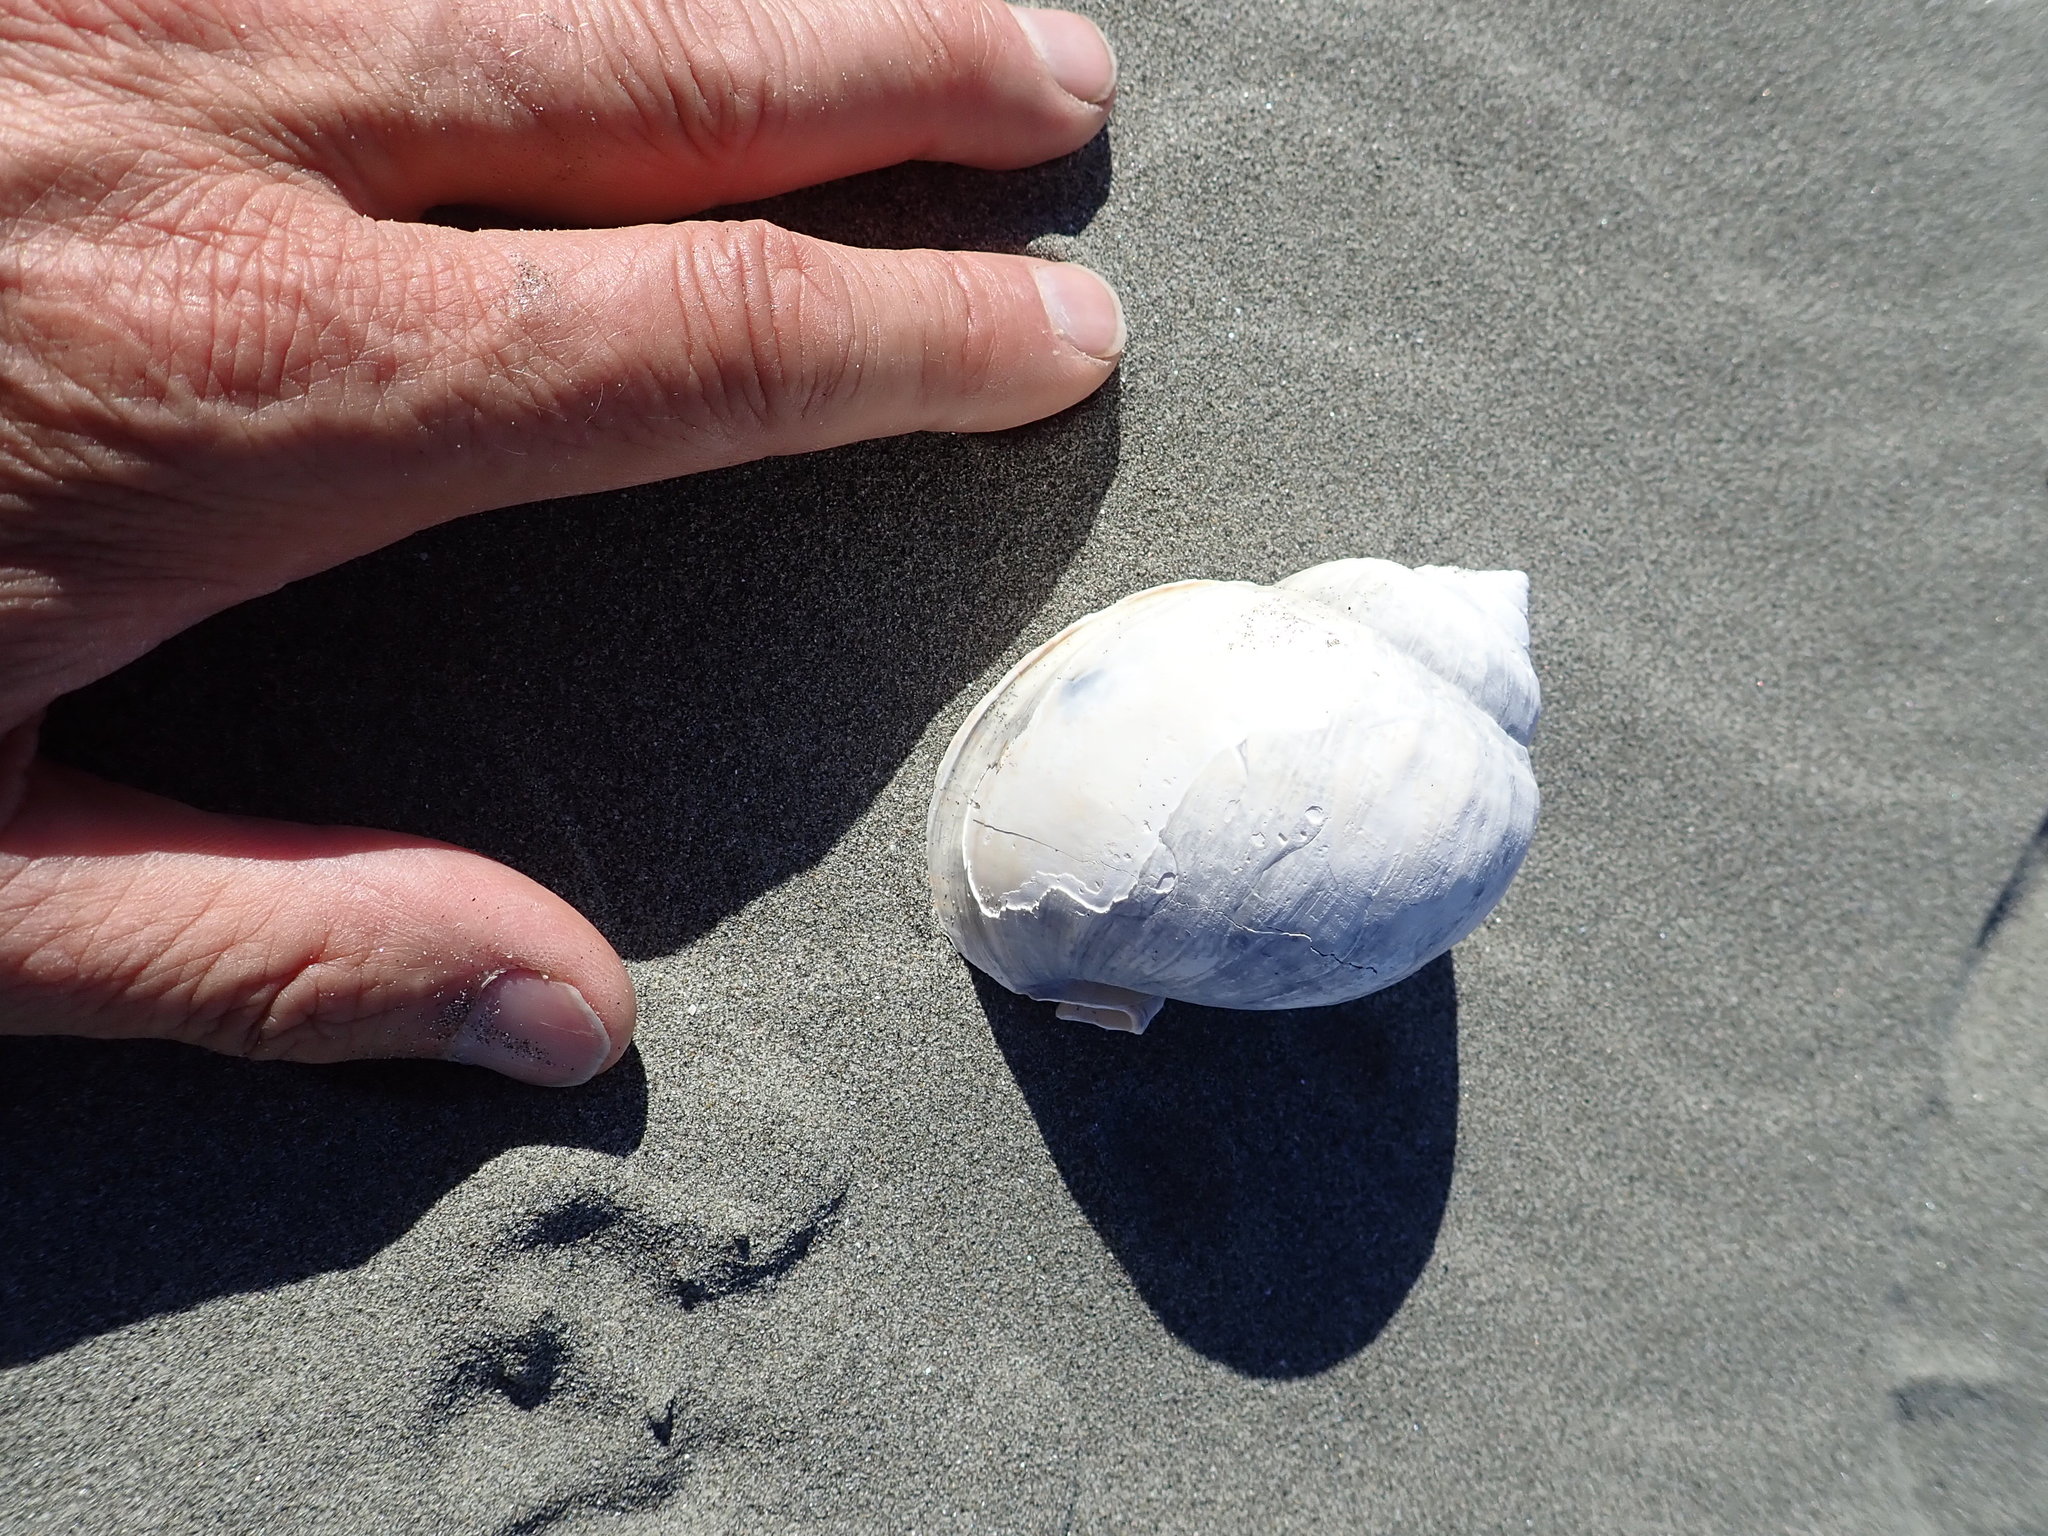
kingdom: Animalia
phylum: Mollusca
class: Gastropoda
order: Littorinimorpha
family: Cassidae
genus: Semicassis
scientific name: Semicassis pyrum
